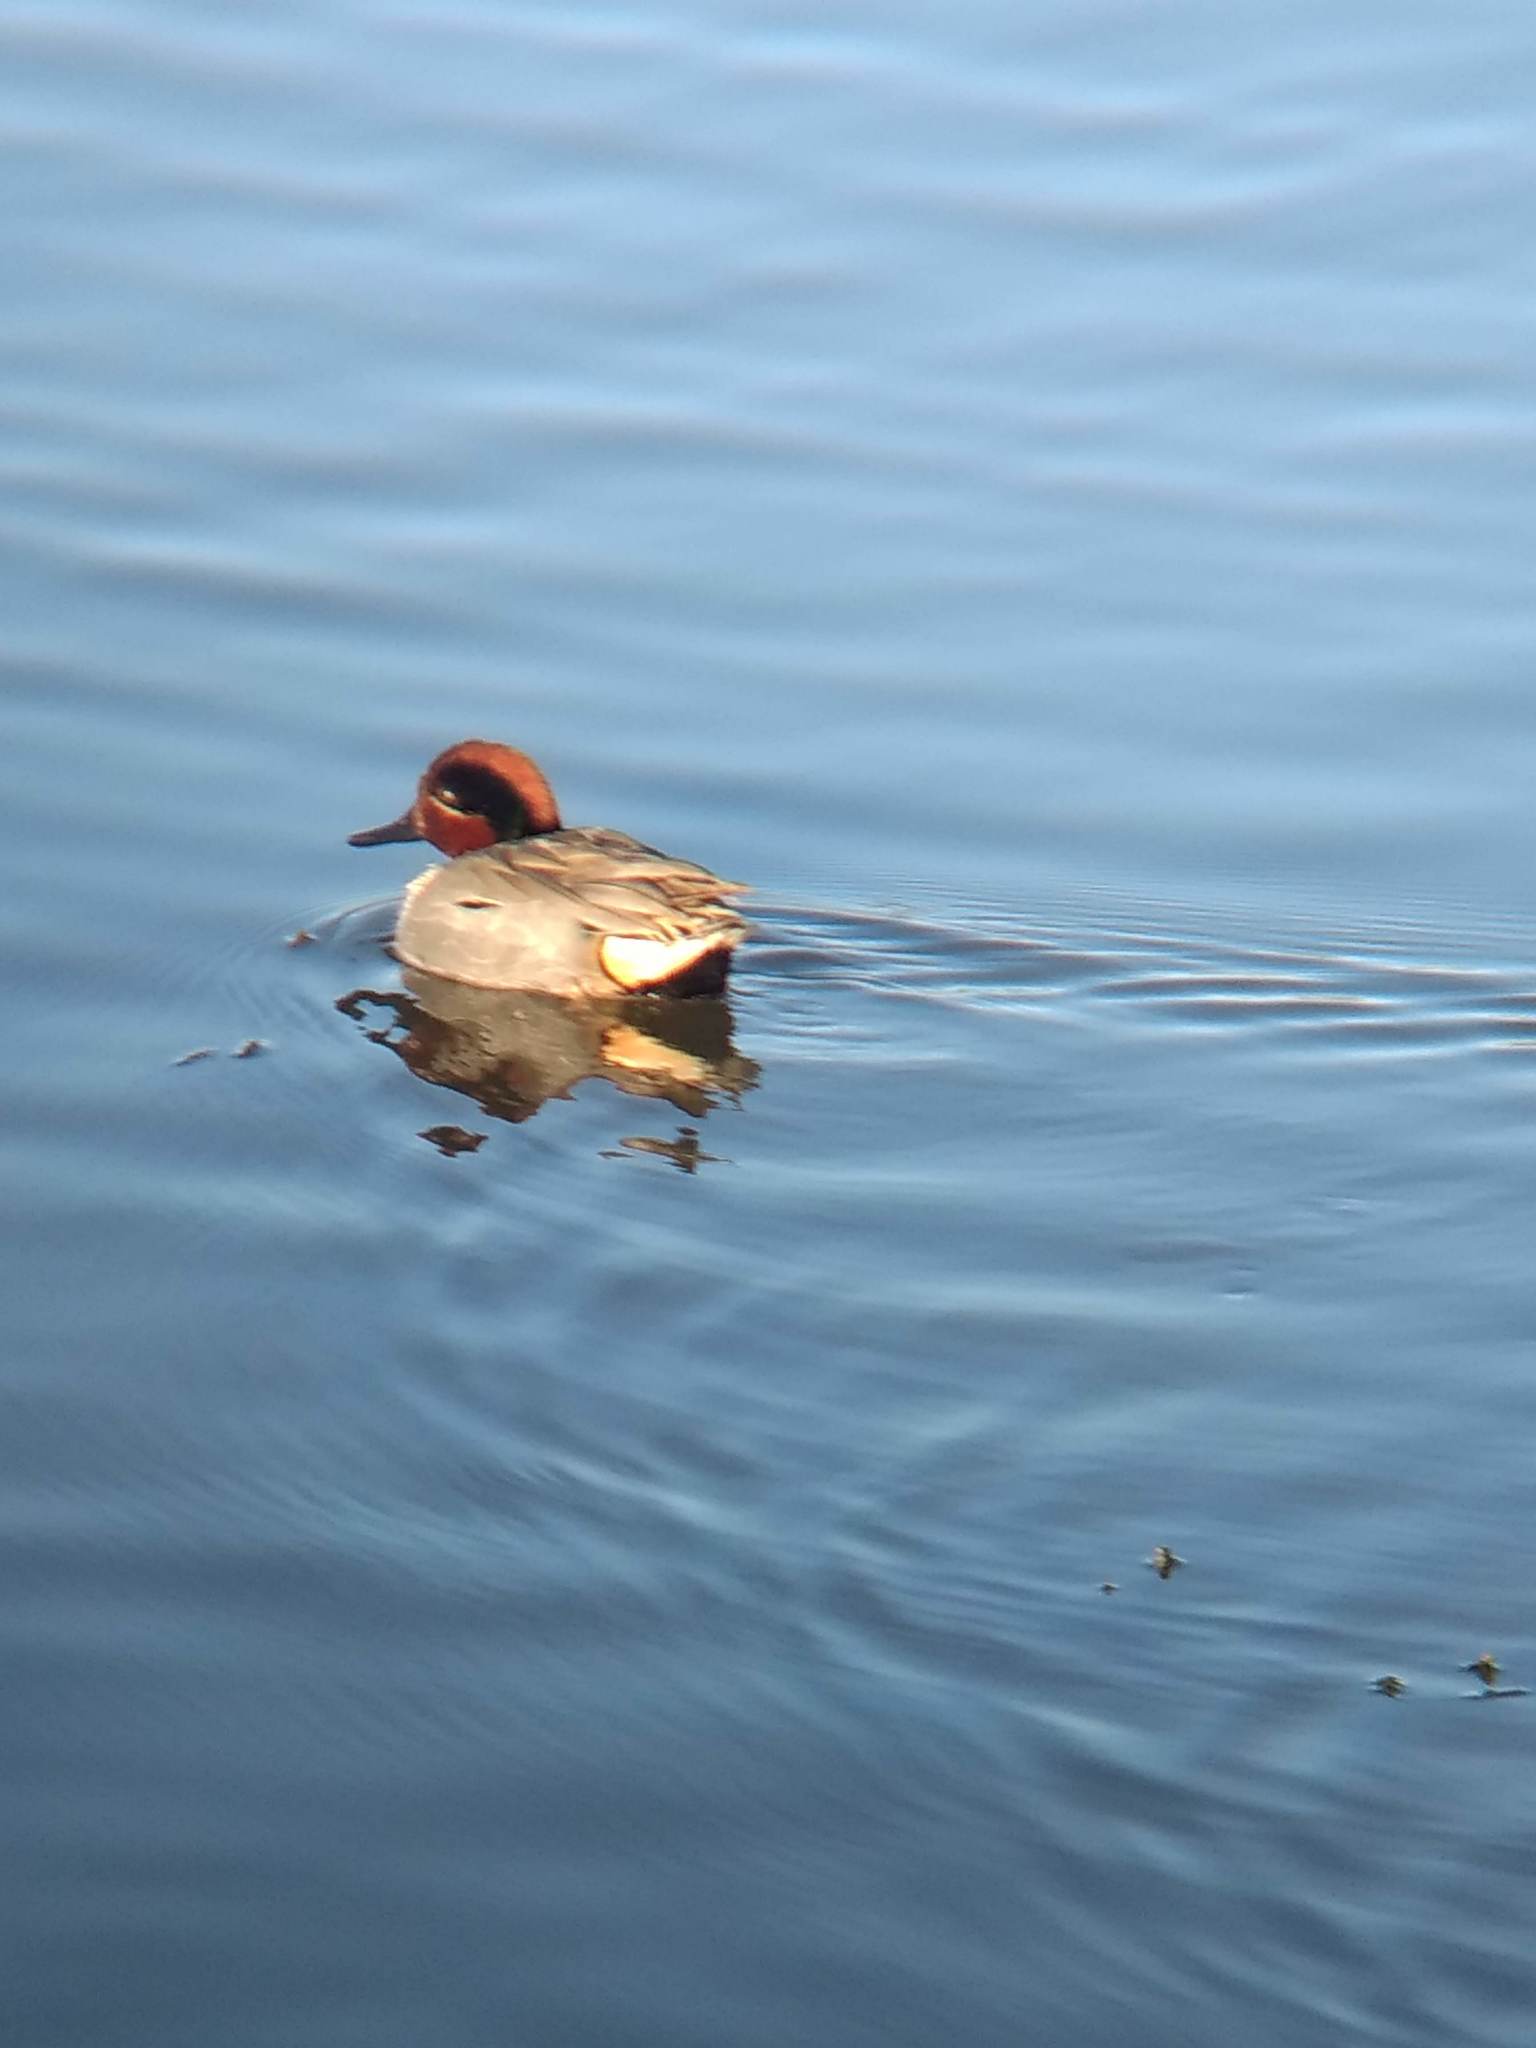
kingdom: Animalia
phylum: Chordata
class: Aves
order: Anseriformes
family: Anatidae
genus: Anas
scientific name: Anas crecca
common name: Eurasian teal
